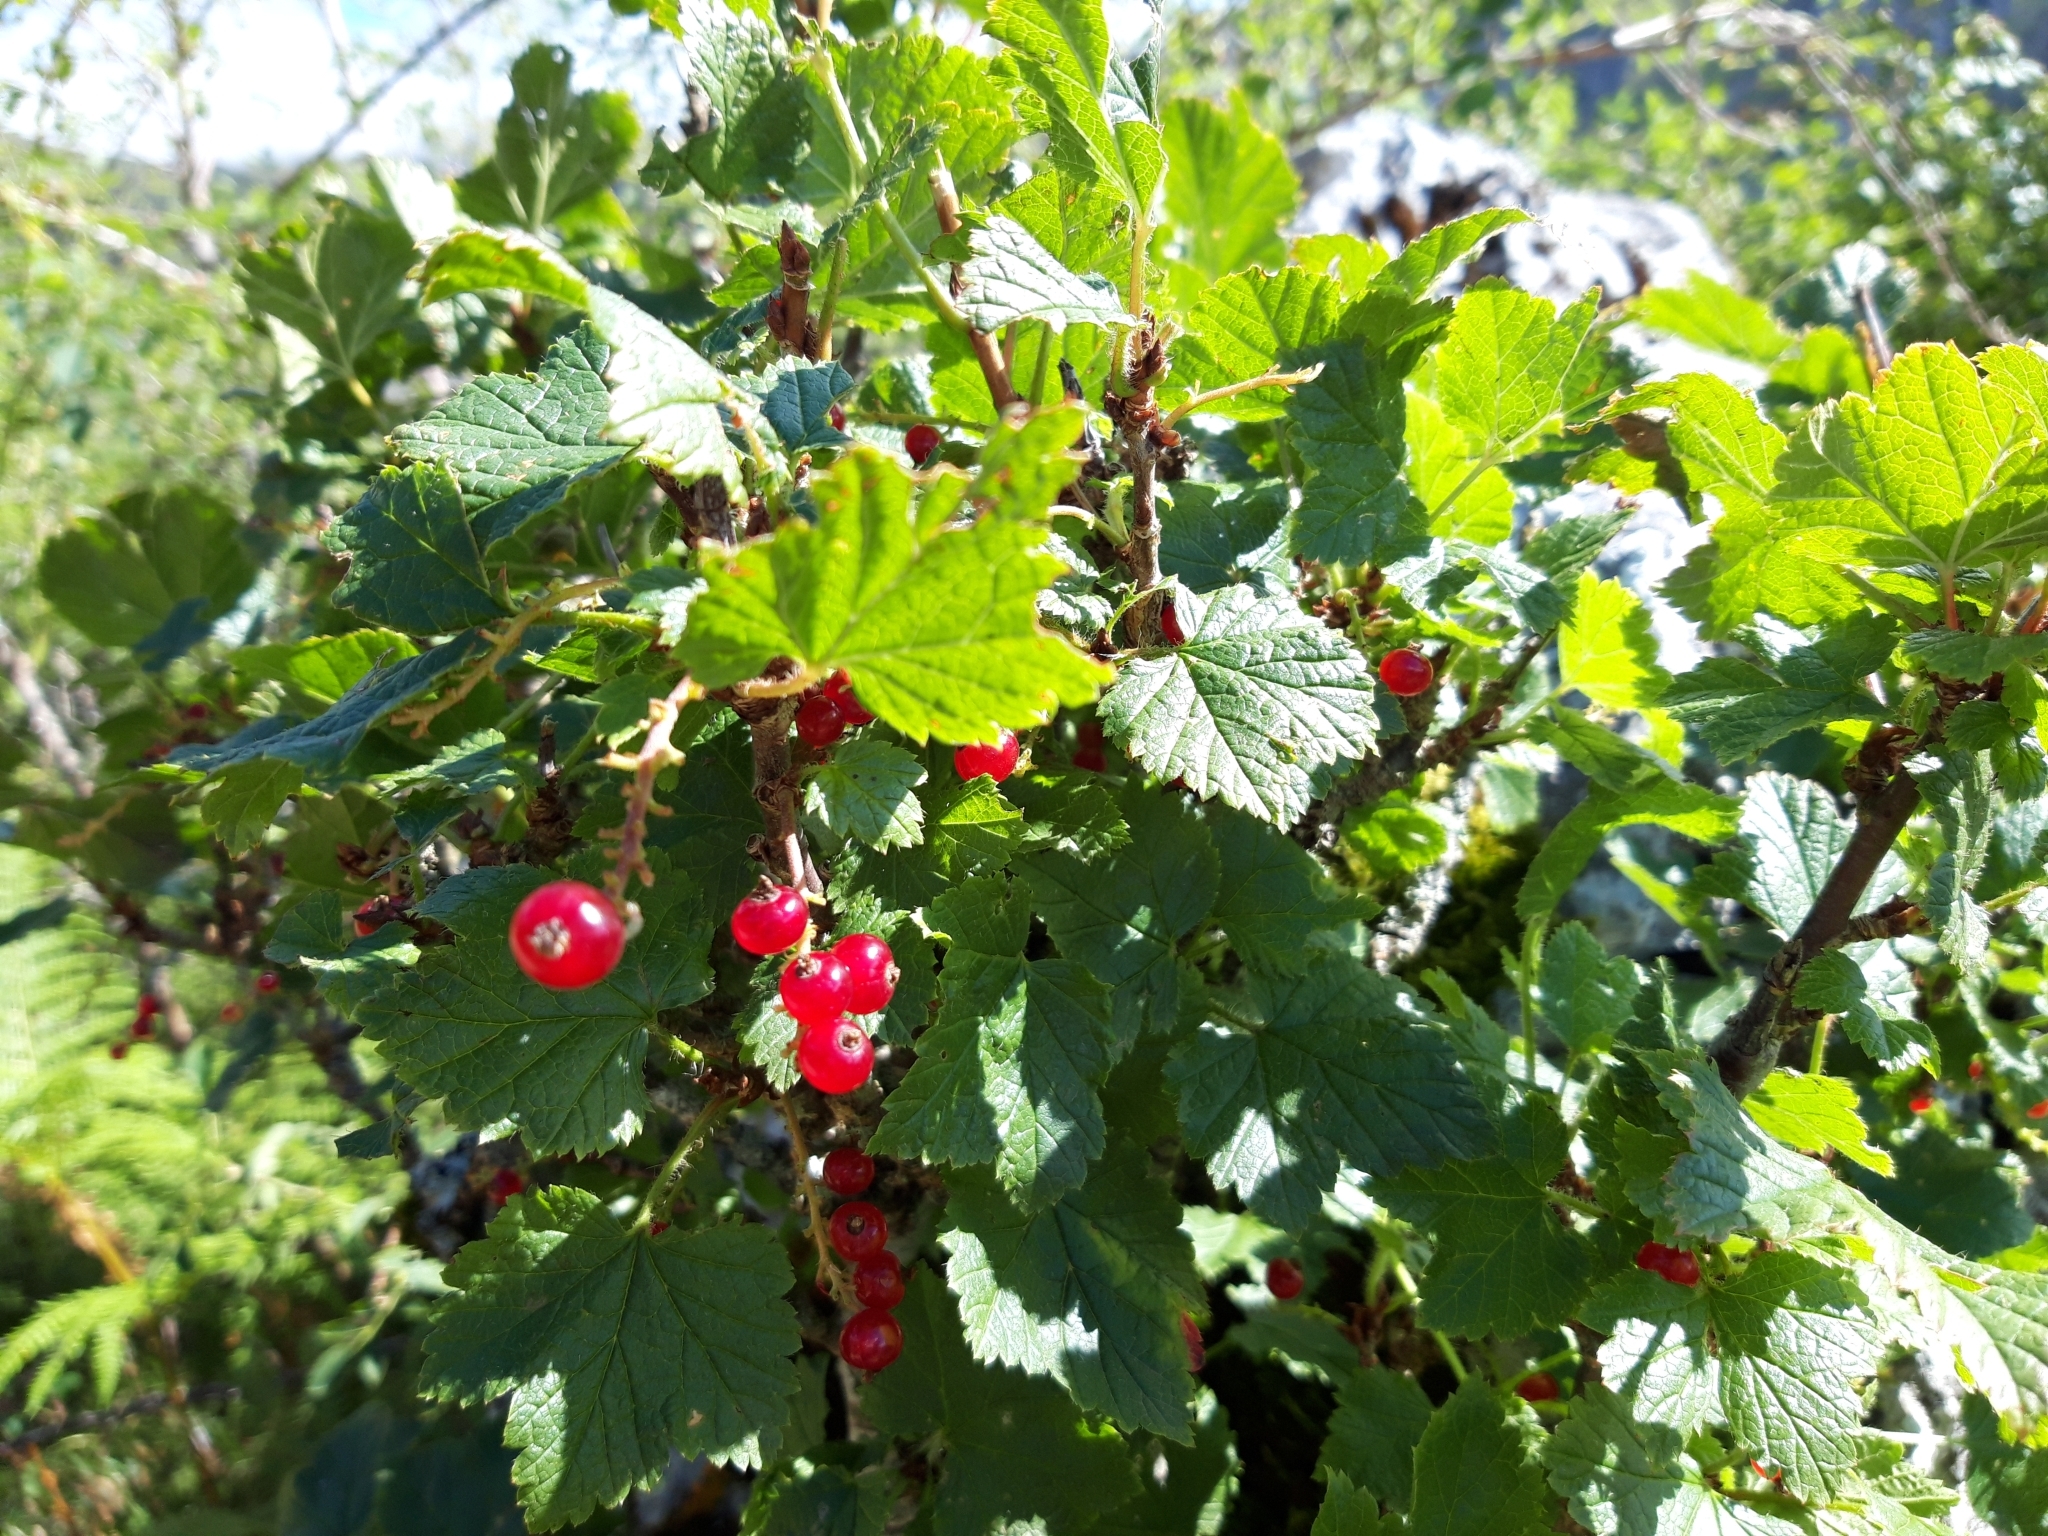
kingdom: Plantae
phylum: Tracheophyta
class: Magnoliopsida
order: Saxifragales
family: Grossulariaceae
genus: Ribes
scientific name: Ribes petraeum
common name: Rock currant
